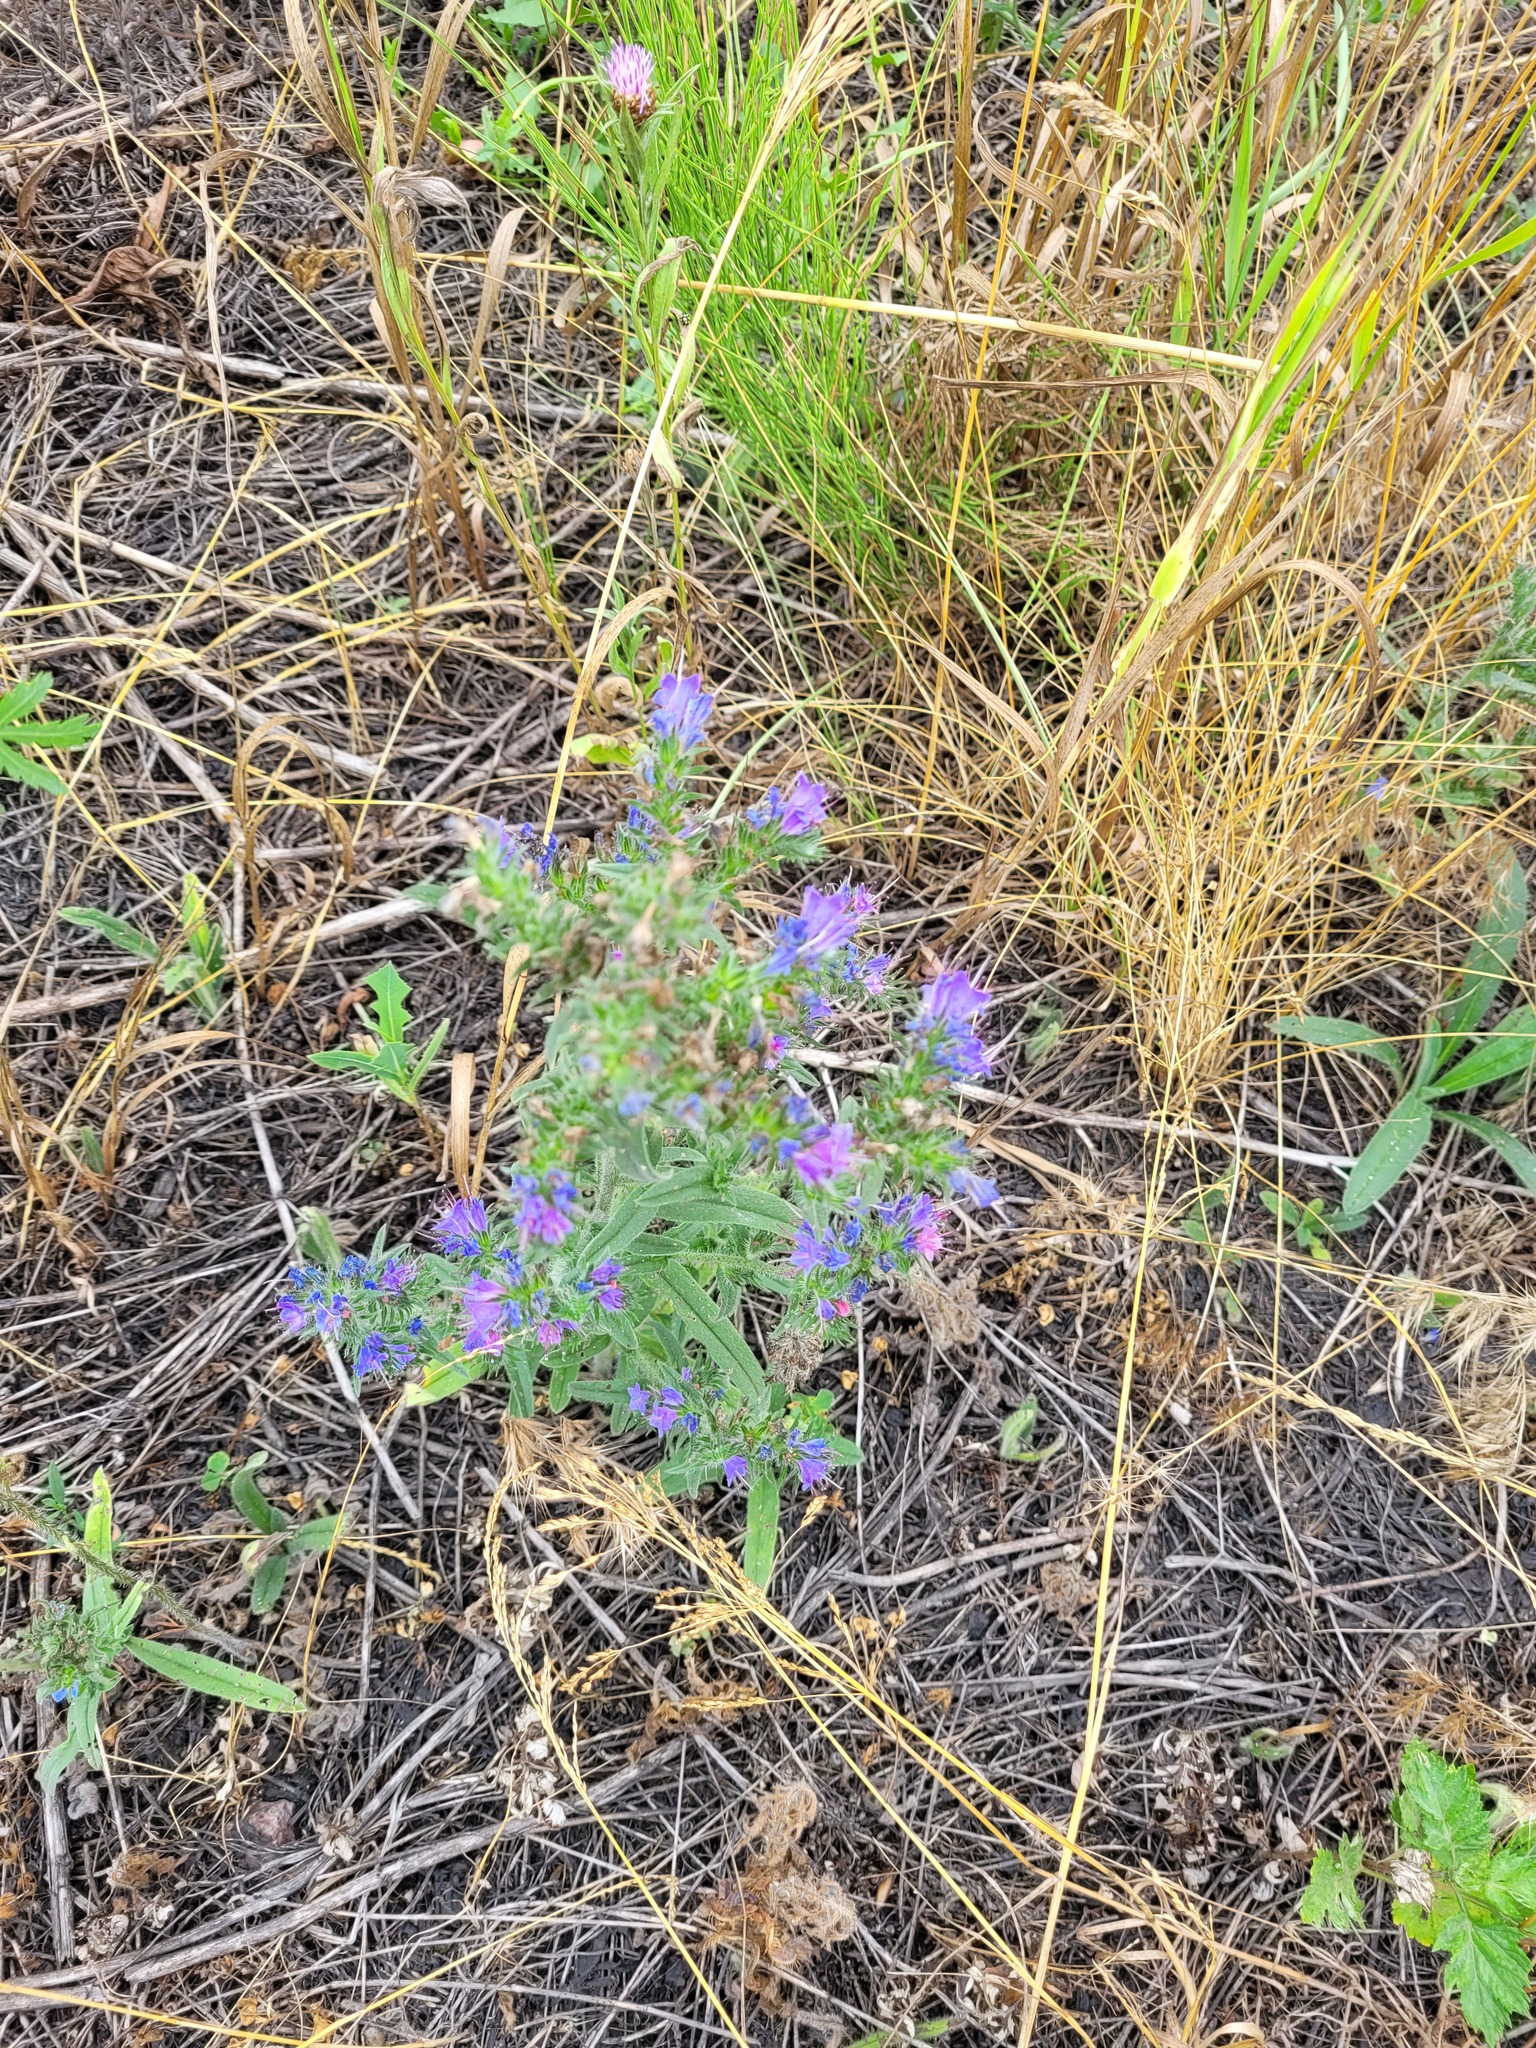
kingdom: Plantae
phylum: Tracheophyta
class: Magnoliopsida
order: Boraginales
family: Boraginaceae
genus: Echium
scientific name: Echium vulgare
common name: Common viper's bugloss
